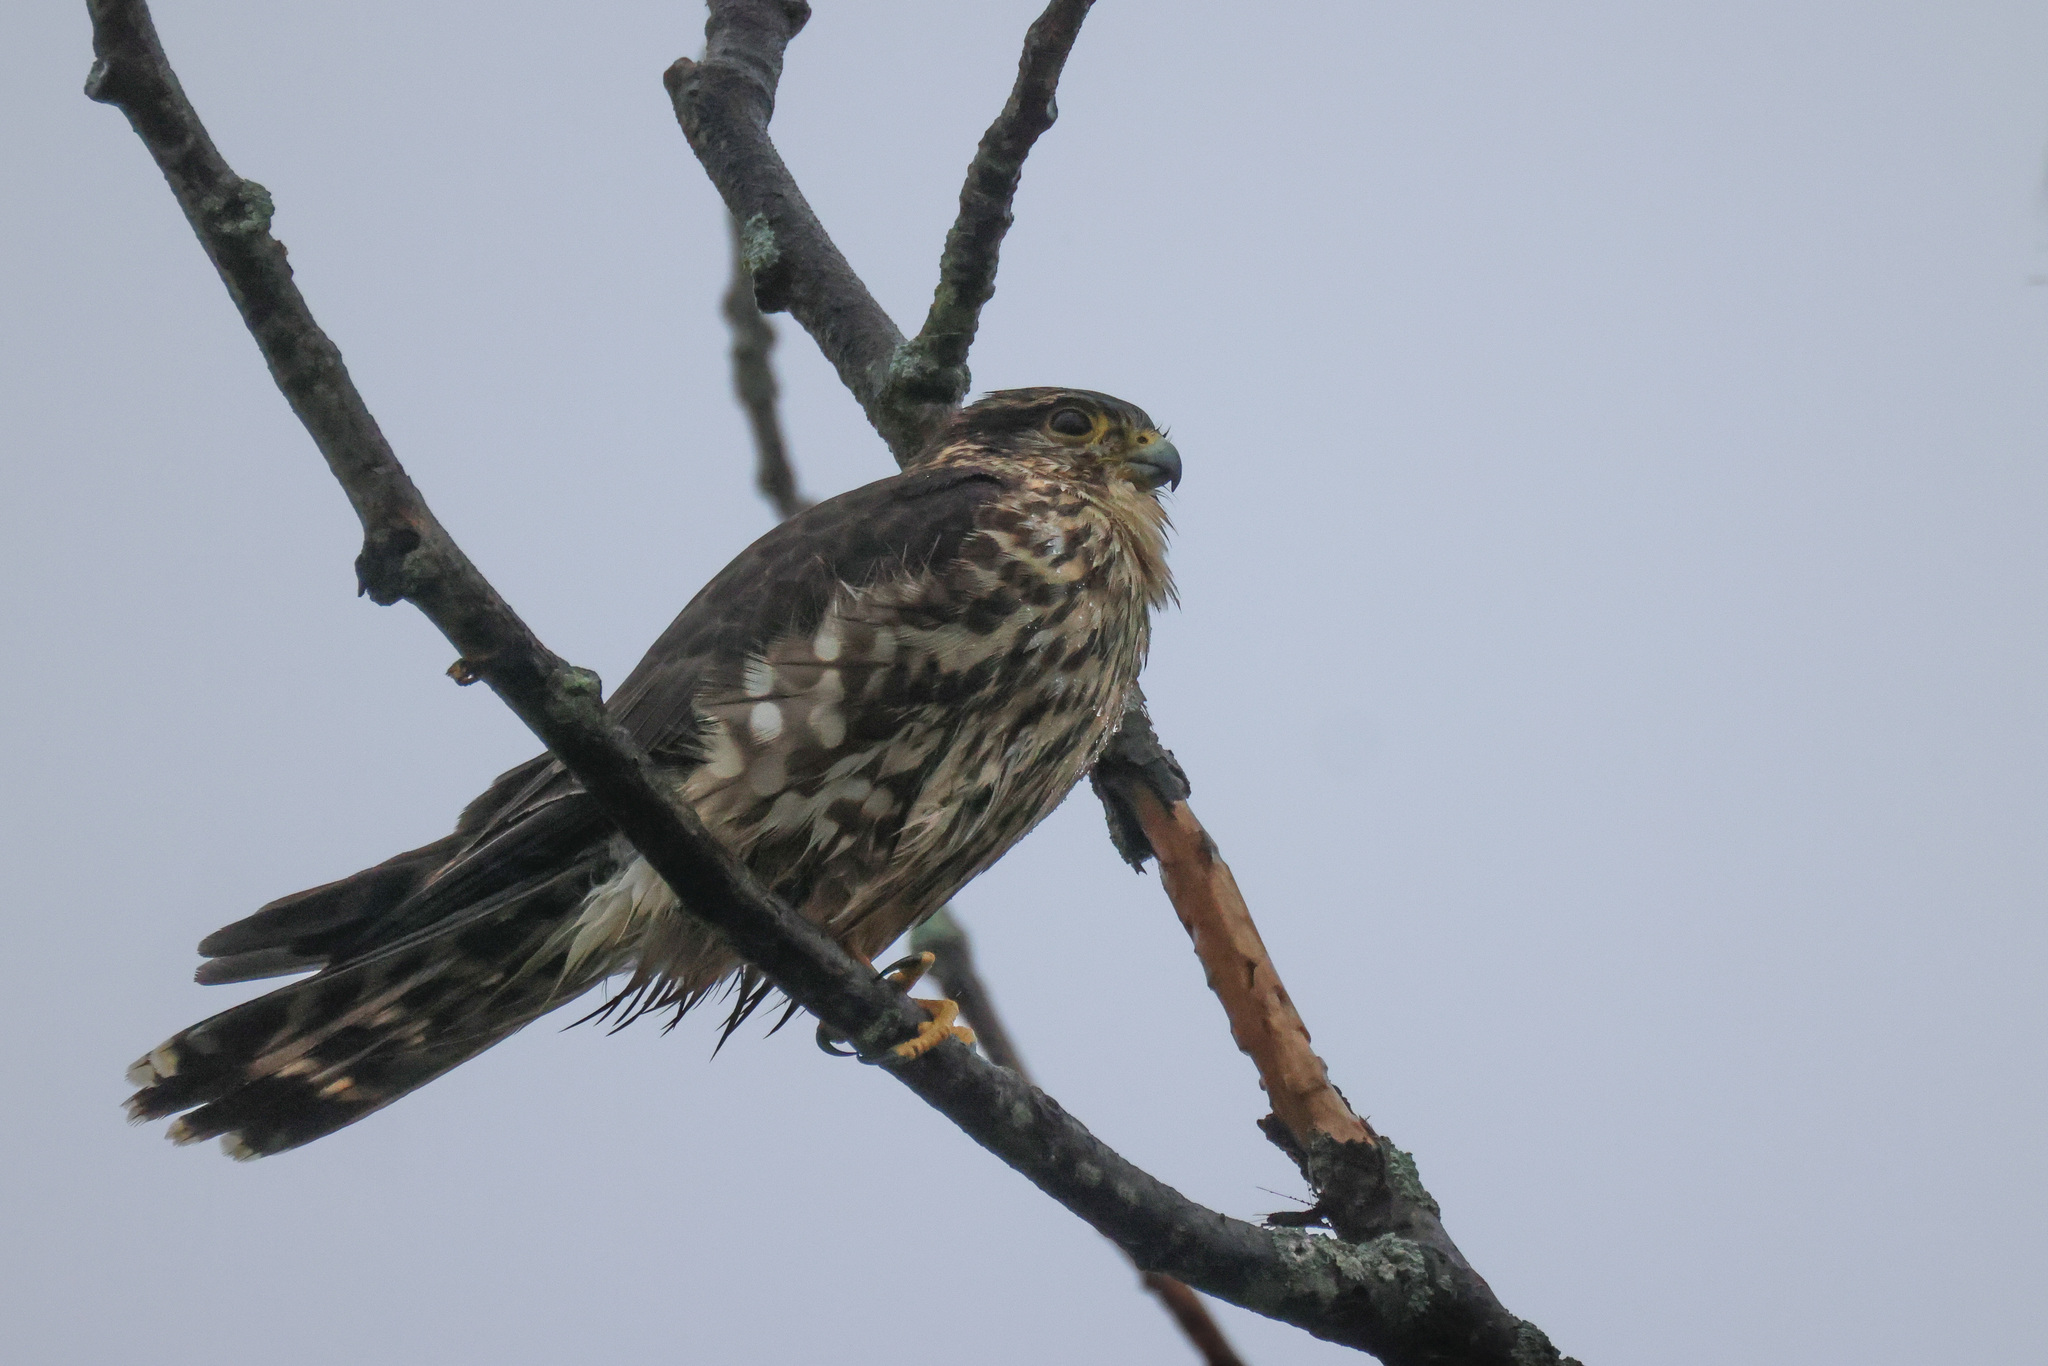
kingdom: Animalia
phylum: Chordata
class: Aves
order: Falconiformes
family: Falconidae
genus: Falco
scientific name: Falco columbarius
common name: Merlin
